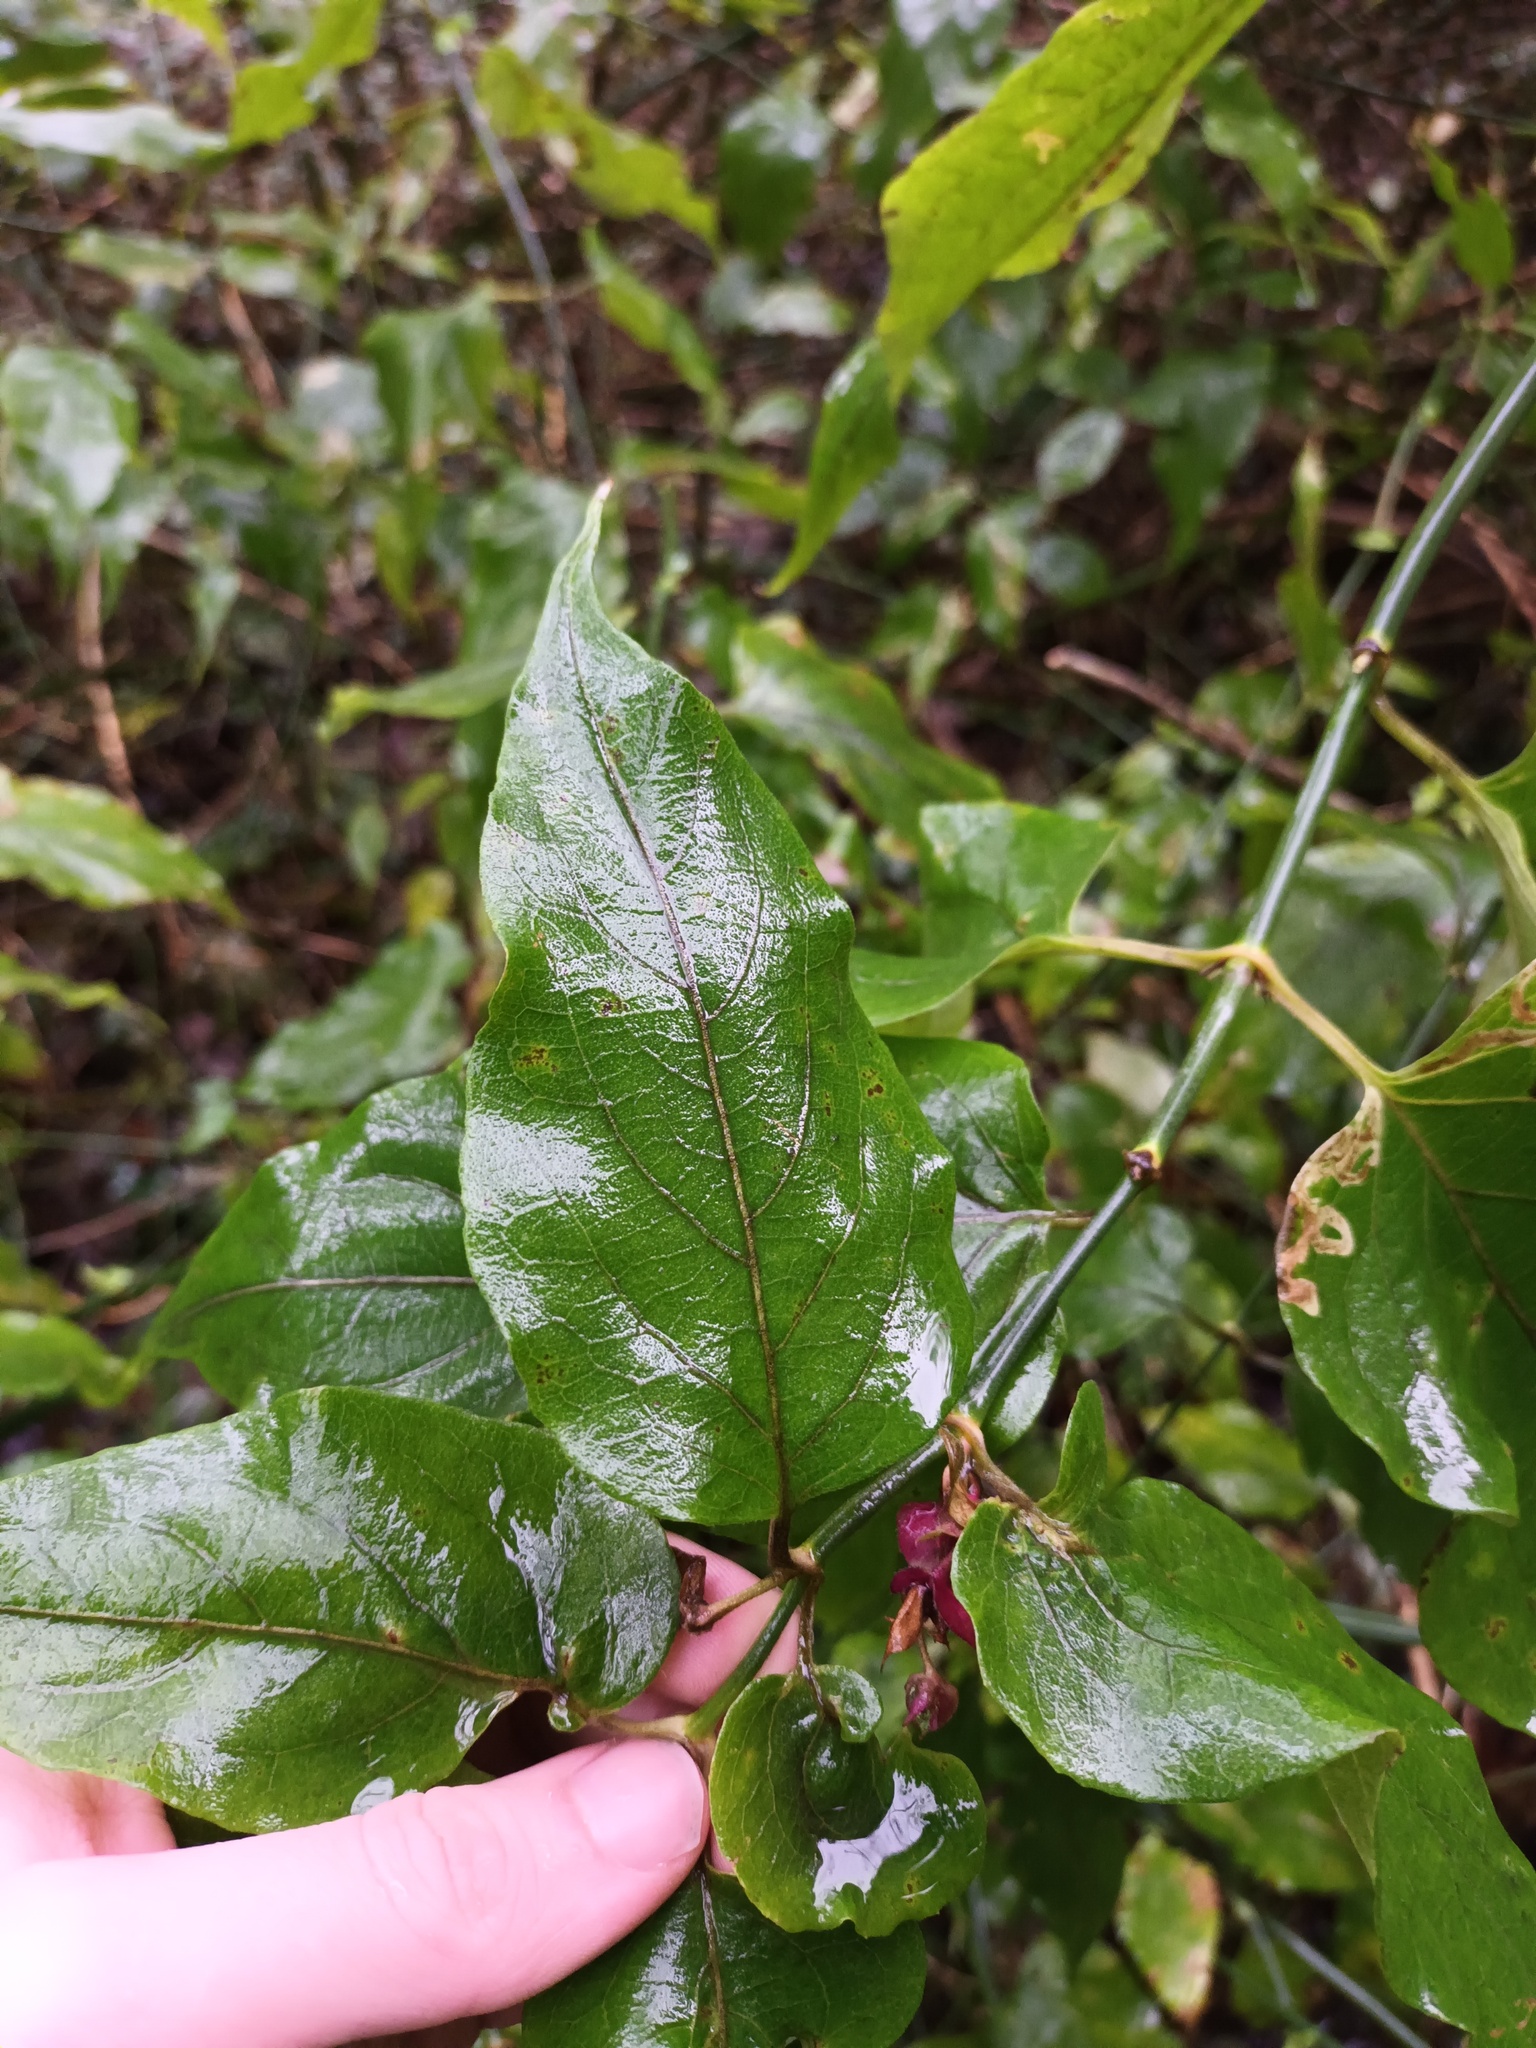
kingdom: Plantae
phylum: Tracheophyta
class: Magnoliopsida
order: Dipsacales
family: Caprifoliaceae
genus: Leycesteria
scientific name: Leycesteria formosa
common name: Himalayan honeysuckle
